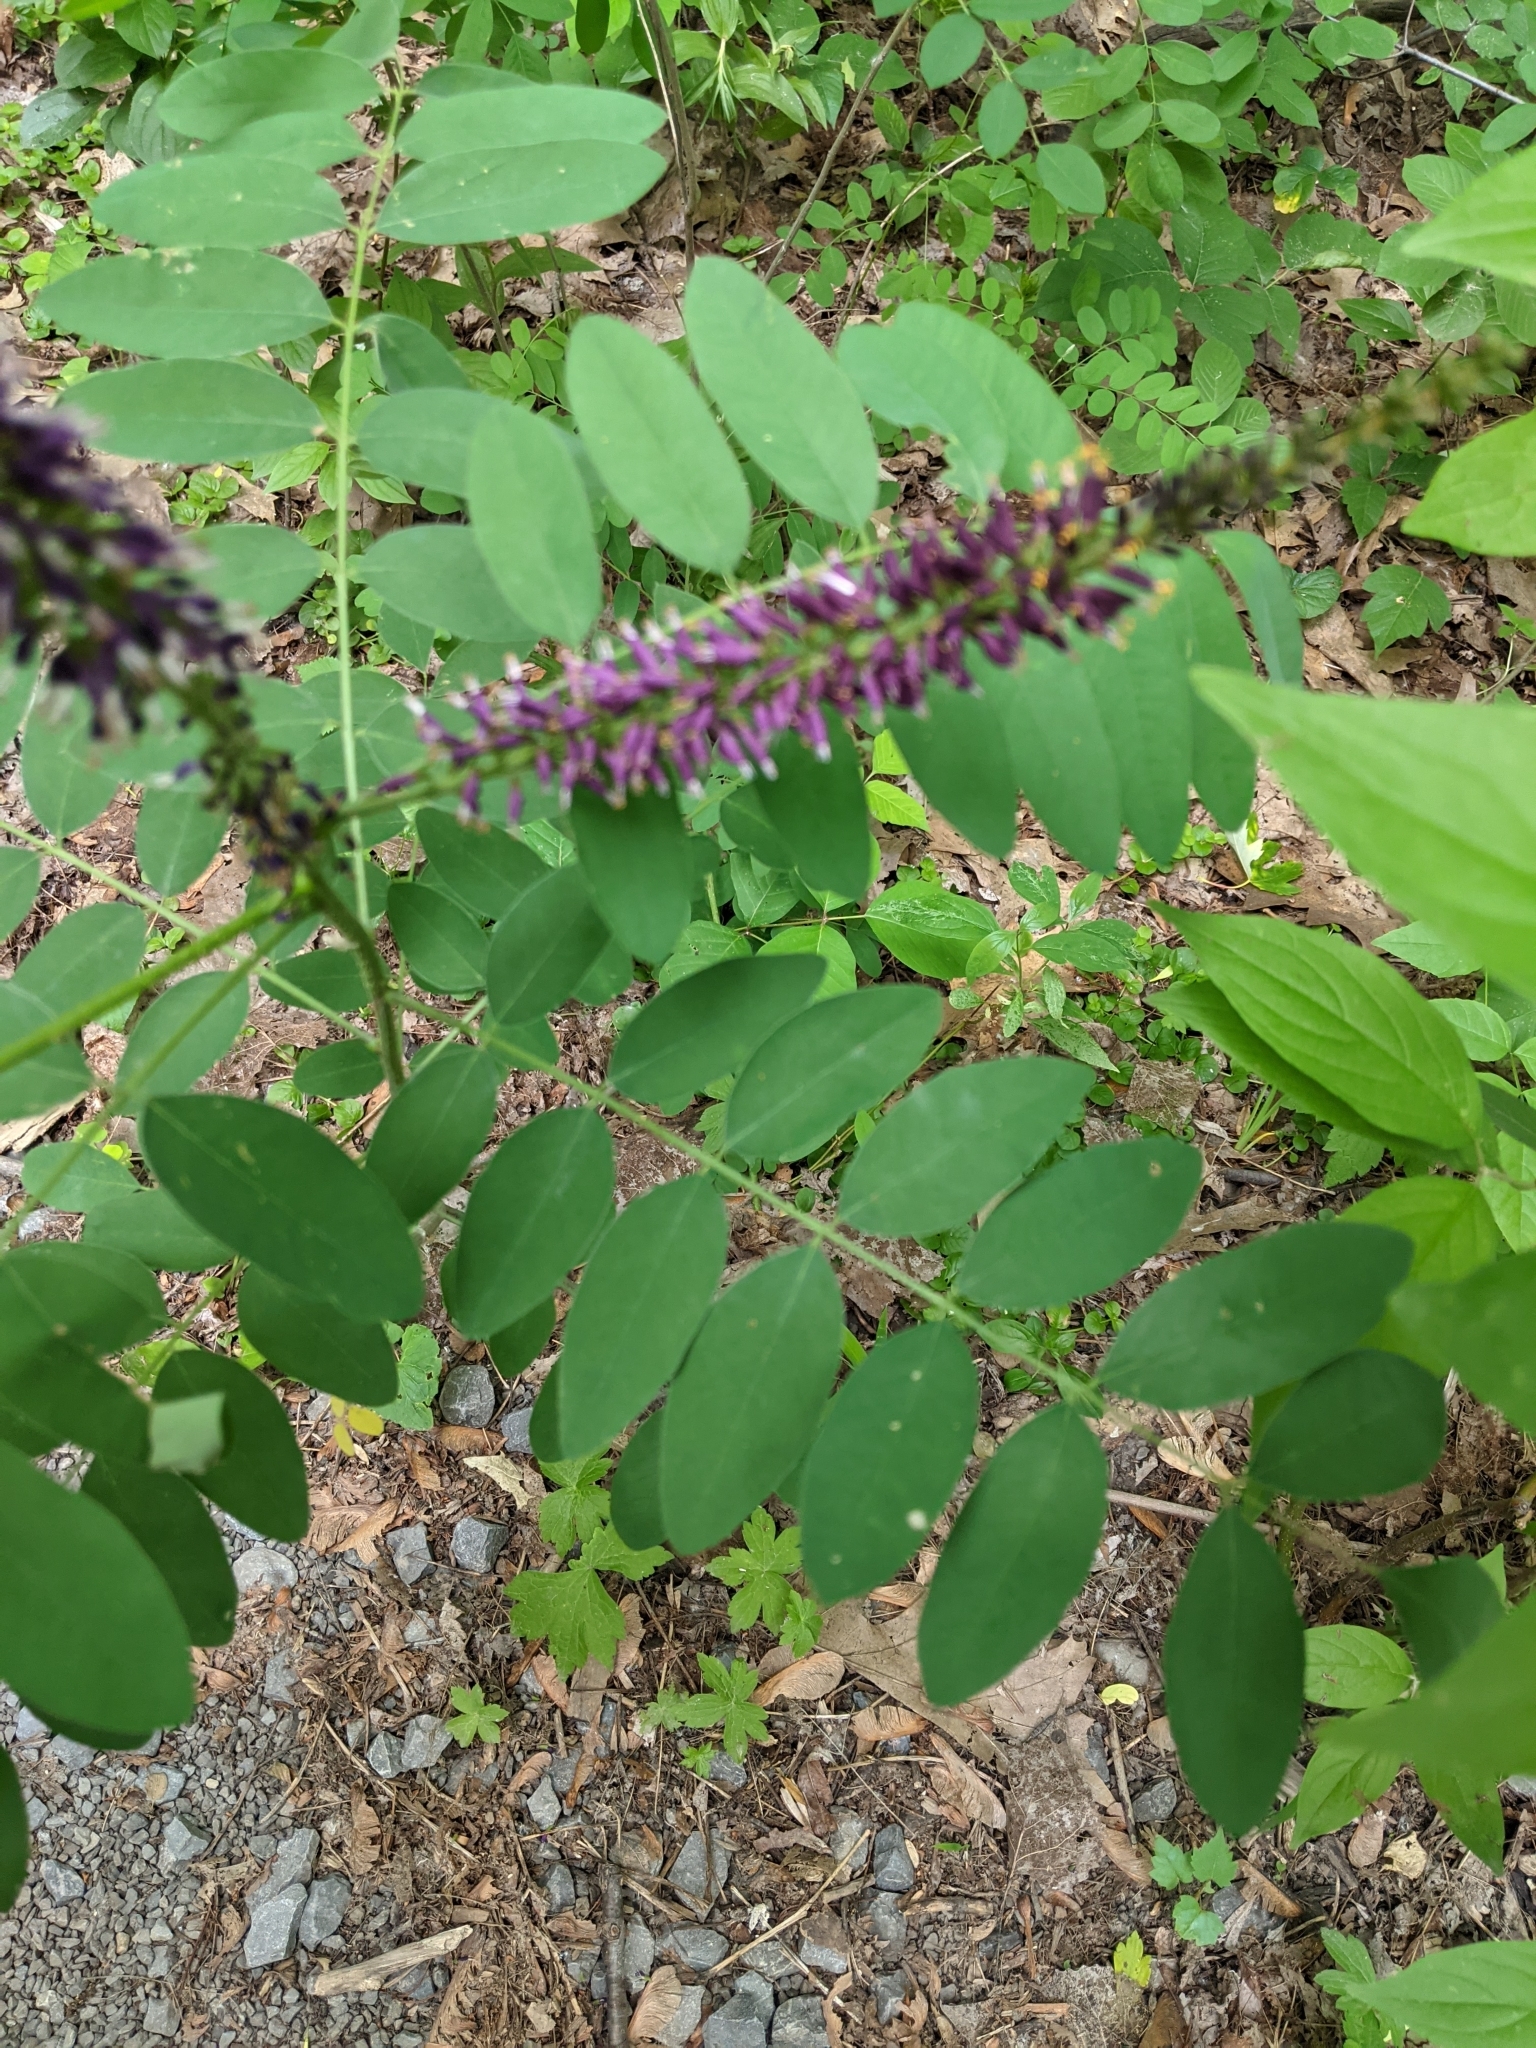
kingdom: Plantae
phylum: Tracheophyta
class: Magnoliopsida
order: Fabales
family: Fabaceae
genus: Amorpha
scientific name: Amorpha fruticosa
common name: False indigo
